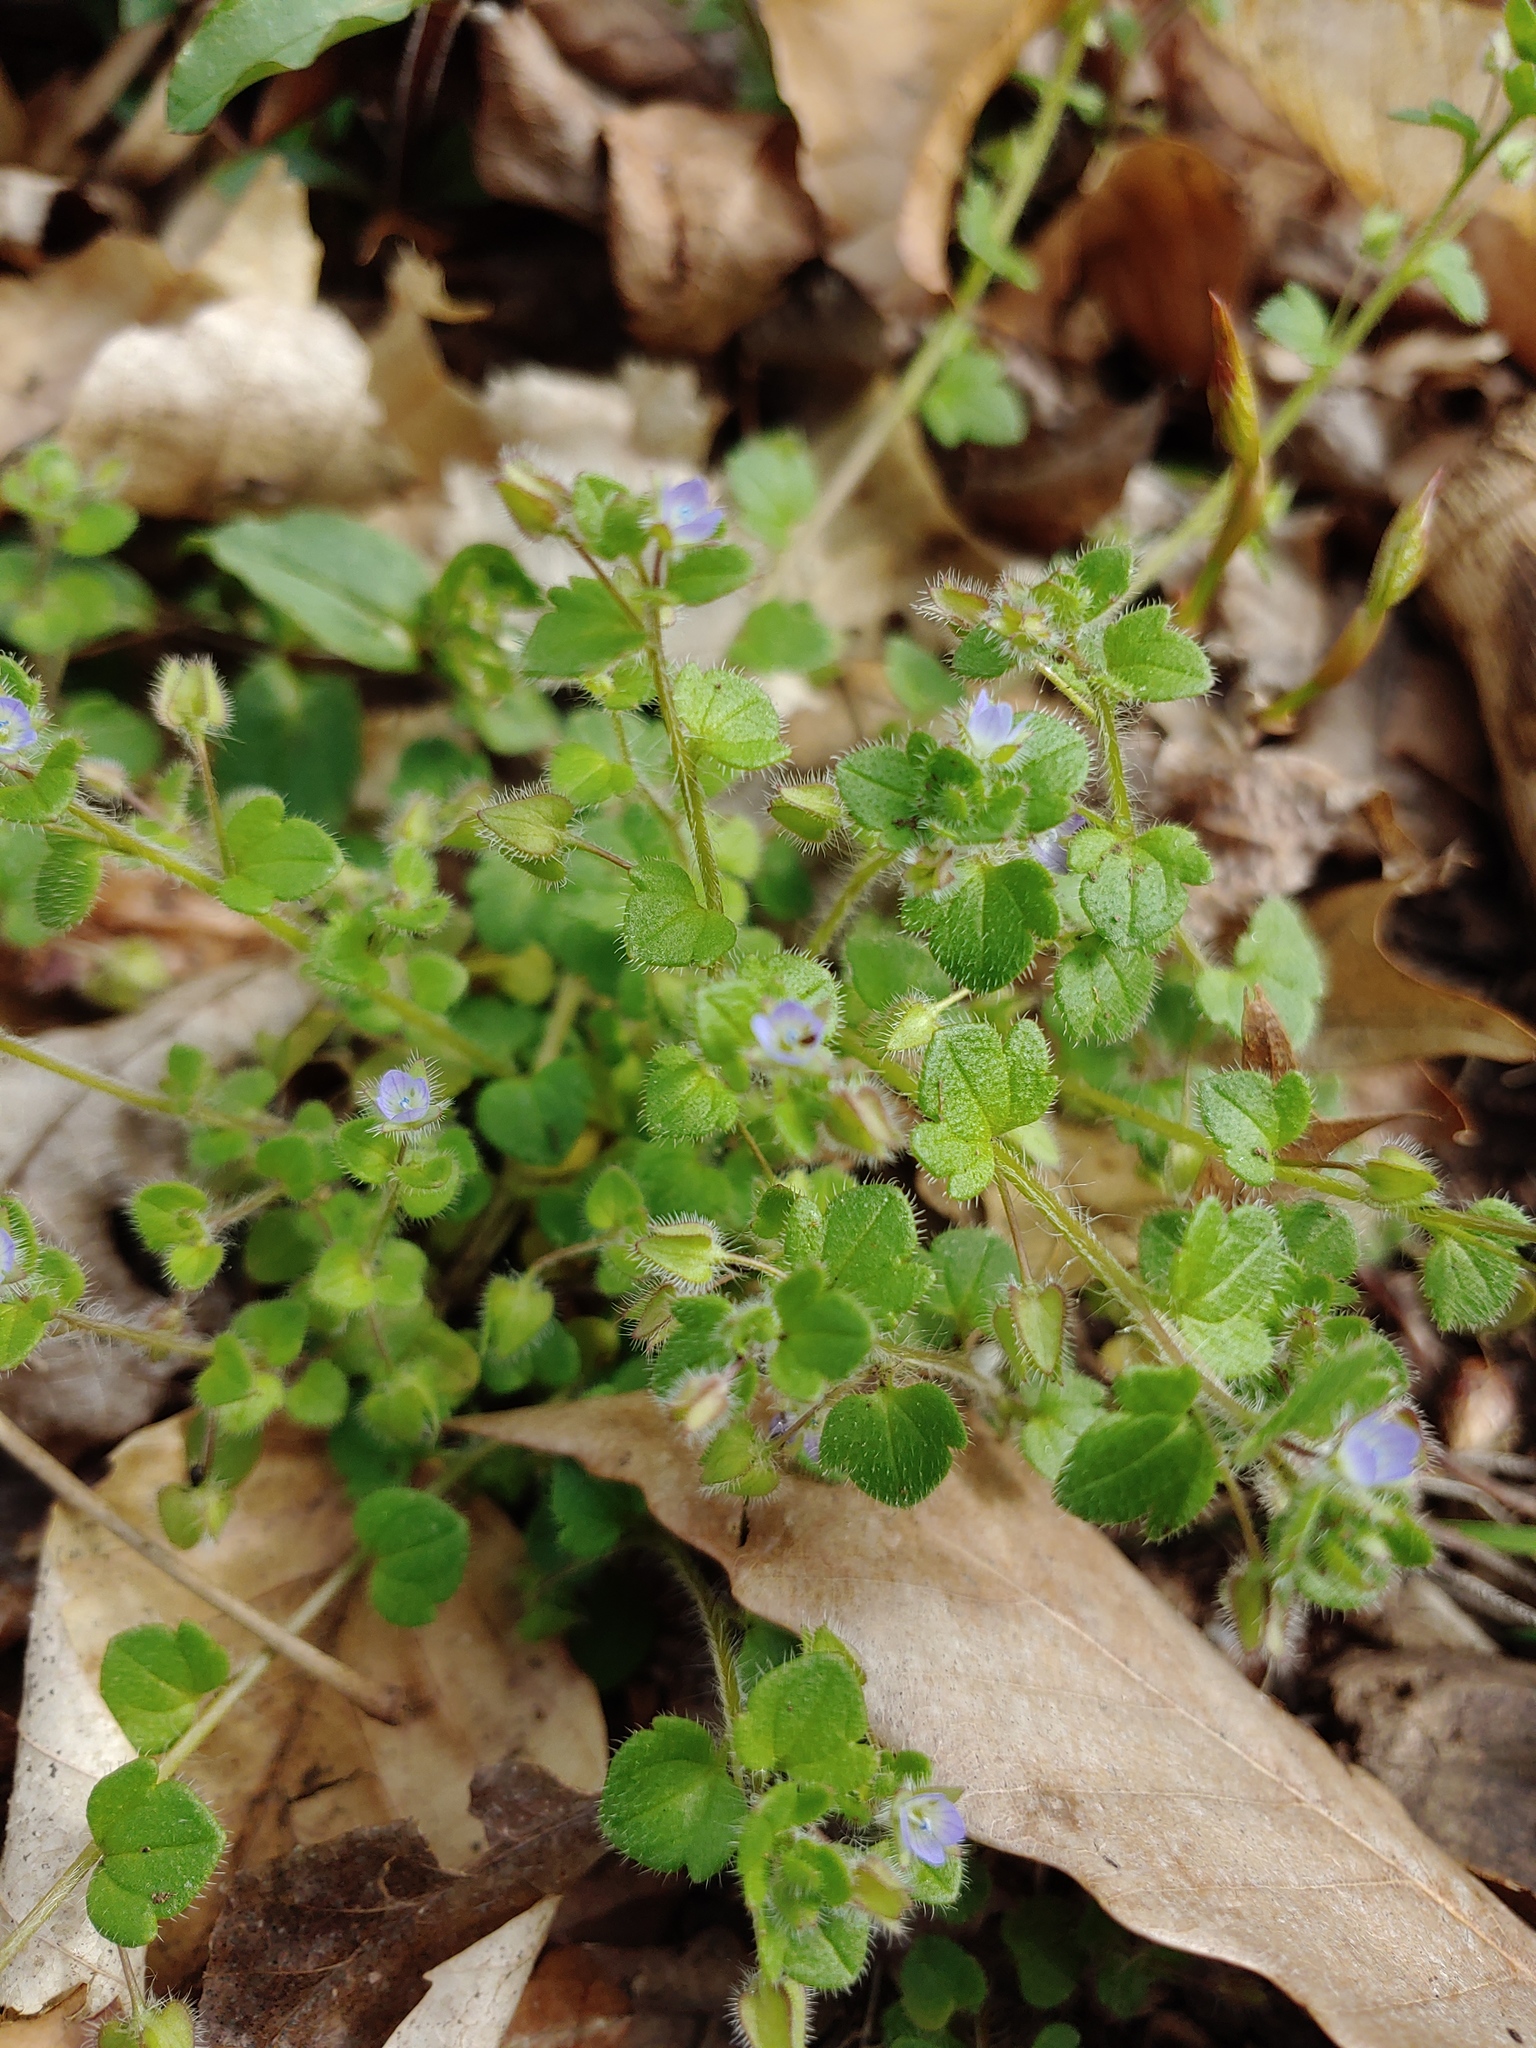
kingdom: Plantae
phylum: Tracheophyta
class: Magnoliopsida
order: Lamiales
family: Plantaginaceae
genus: Veronica
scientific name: Veronica hederifolia
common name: Ivy-leaved speedwell
